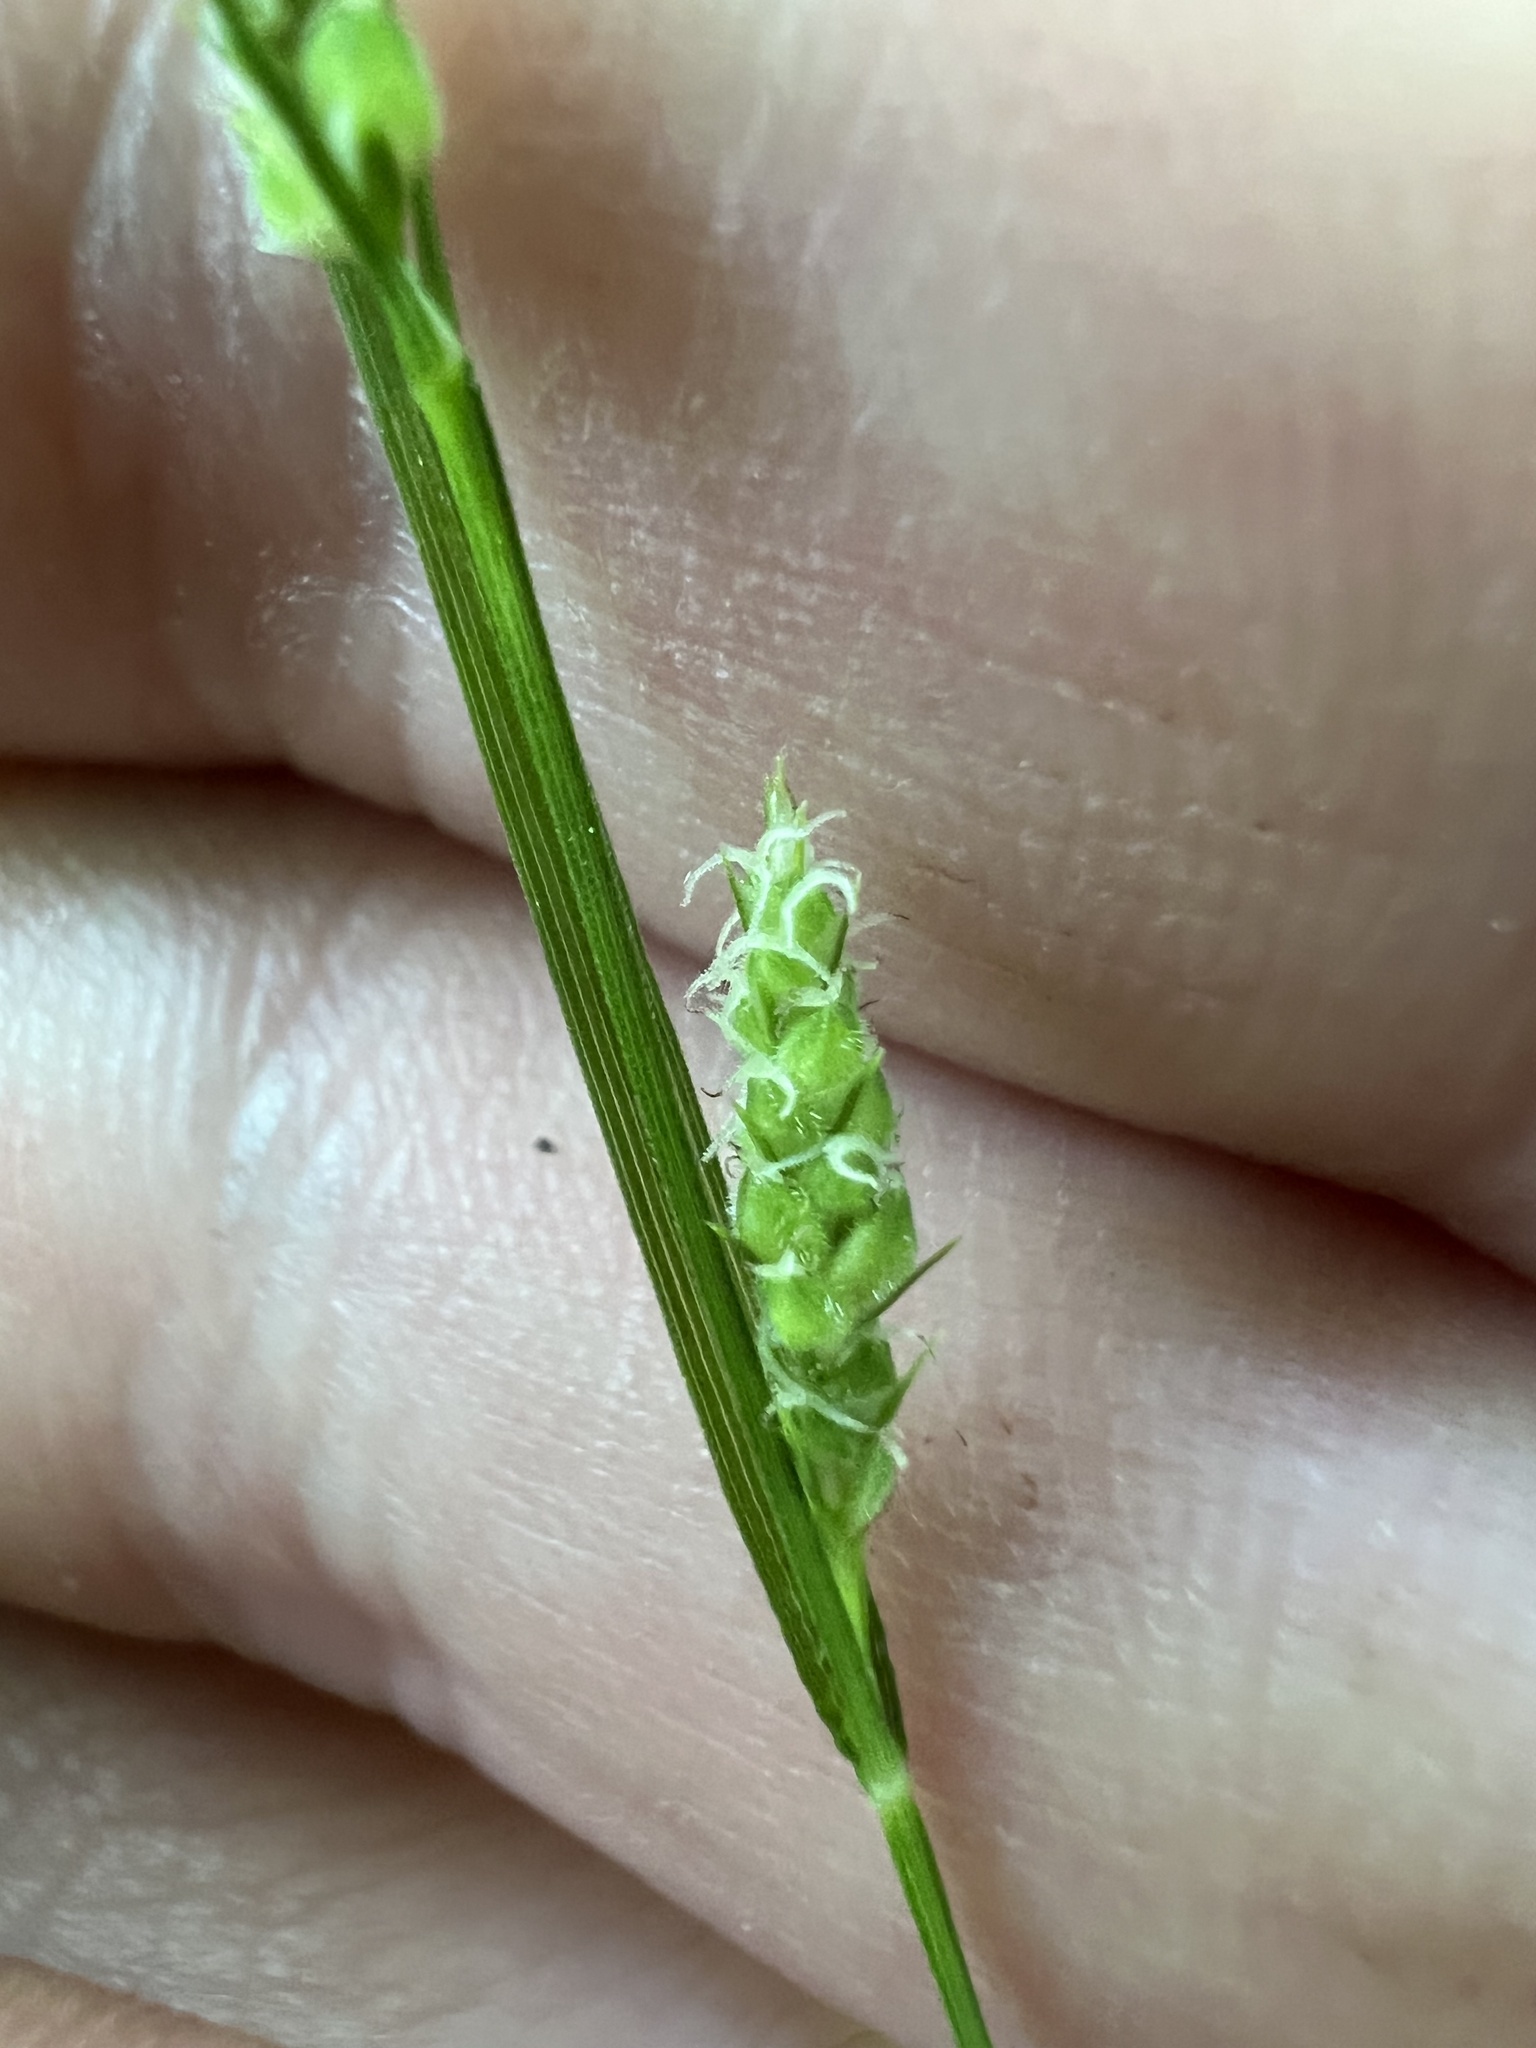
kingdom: Plantae
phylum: Tracheophyta
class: Liliopsida
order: Poales
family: Cyperaceae
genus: Carex
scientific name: Carex swanii
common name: Downy green sedge
